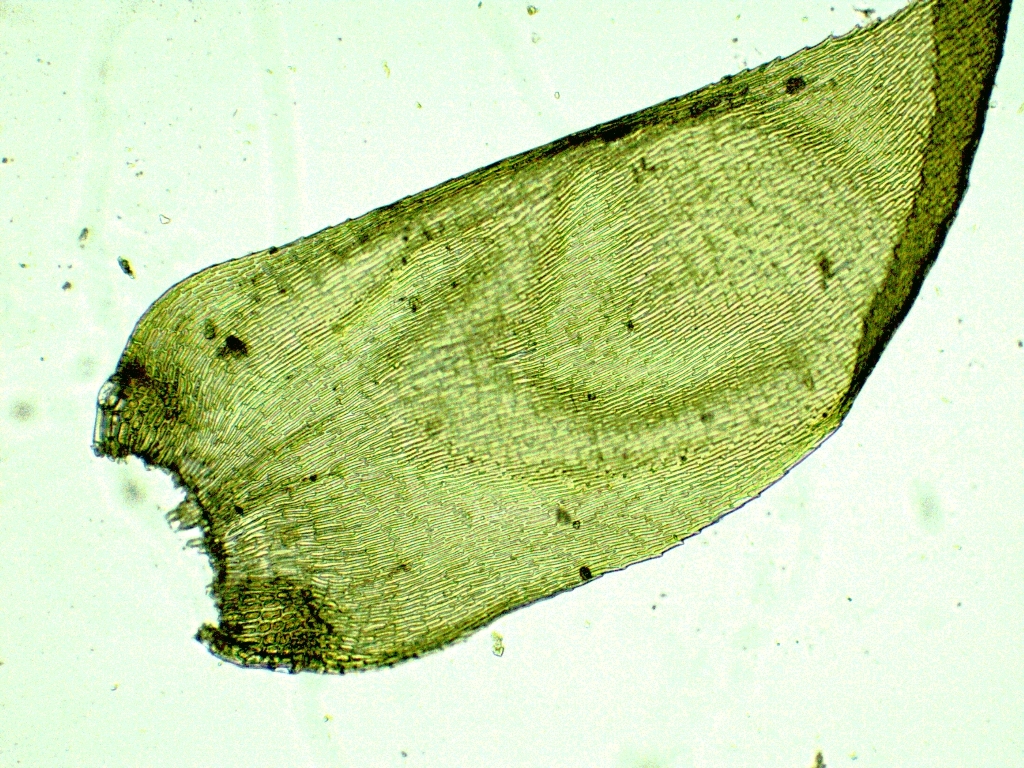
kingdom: Plantae
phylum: Bryophyta
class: Bryopsida
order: Hypnales
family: Hypnaceae
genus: Hypnum
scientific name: Hypnum uncinulatum
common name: Hooked plait-moss
